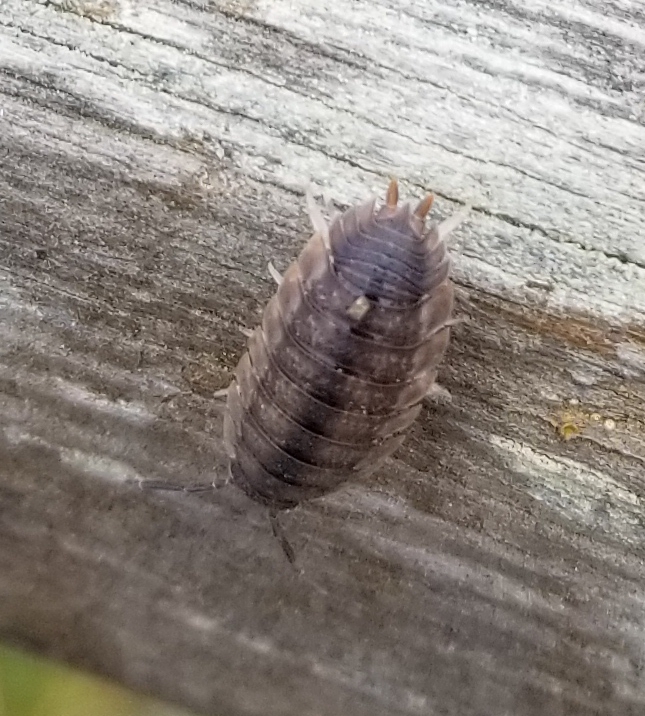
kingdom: Animalia
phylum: Arthropoda
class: Malacostraca
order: Isopoda
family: Porcellionidae
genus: Porcellio
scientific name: Porcellio scaber
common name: Common rough woodlouse
